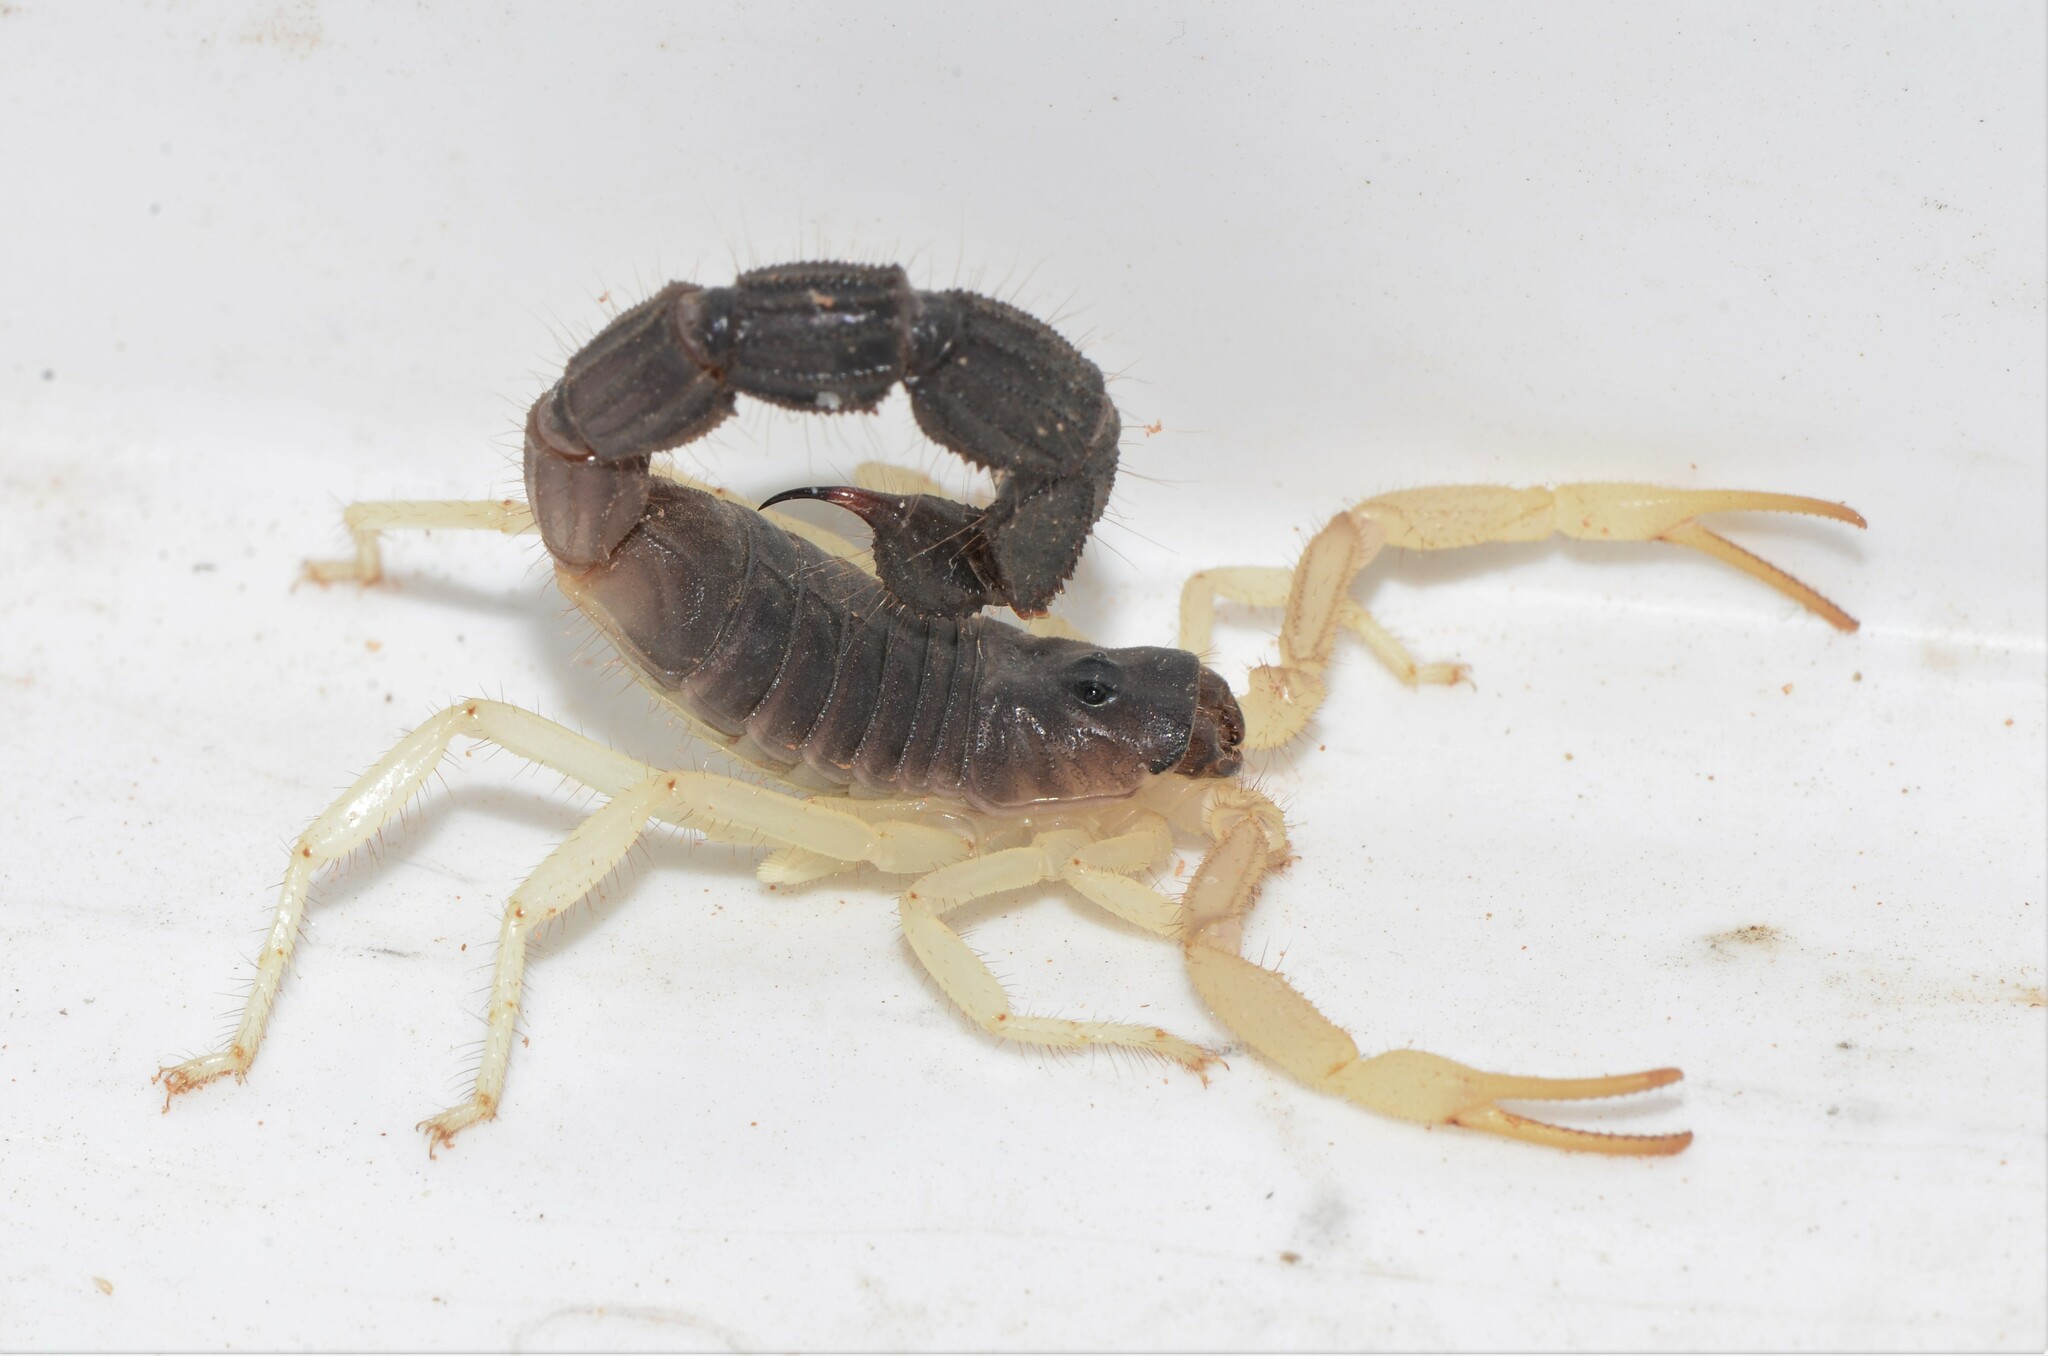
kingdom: Animalia
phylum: Arthropoda
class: Arachnida
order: Scorpiones
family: Buthidae
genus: Parabuthus
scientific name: Parabuthus schlechteri
